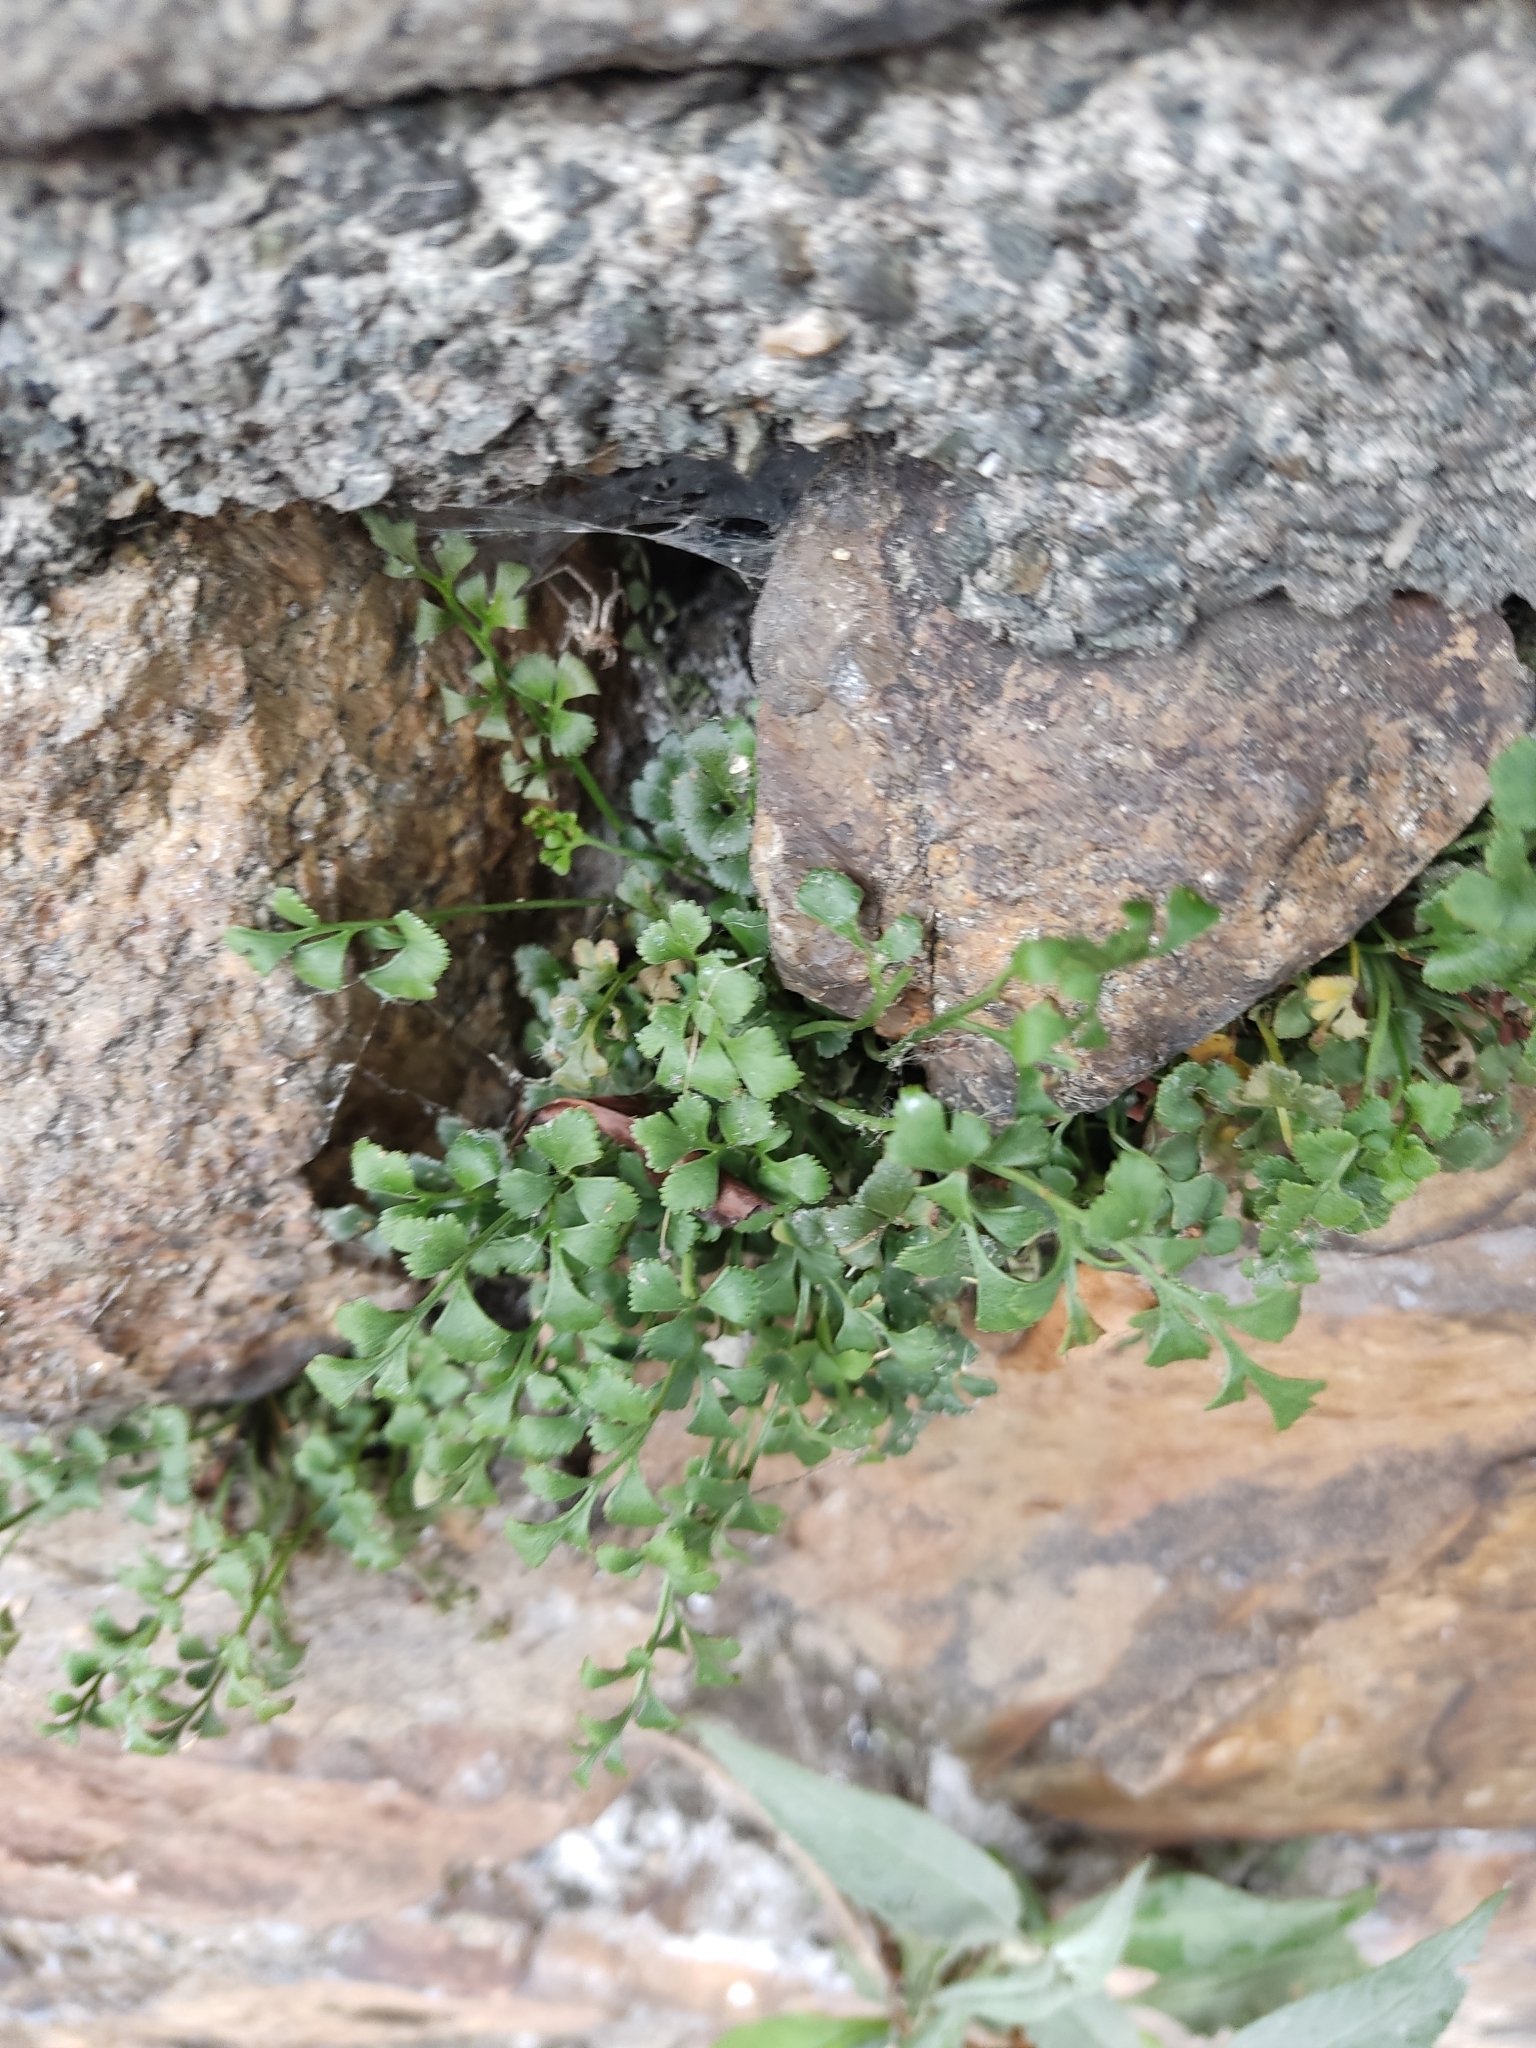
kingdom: Plantae
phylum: Tracheophyta
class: Polypodiopsida
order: Polypodiales
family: Aspleniaceae
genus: Asplenium
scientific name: Asplenium ruta-muraria
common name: Wall-rue
